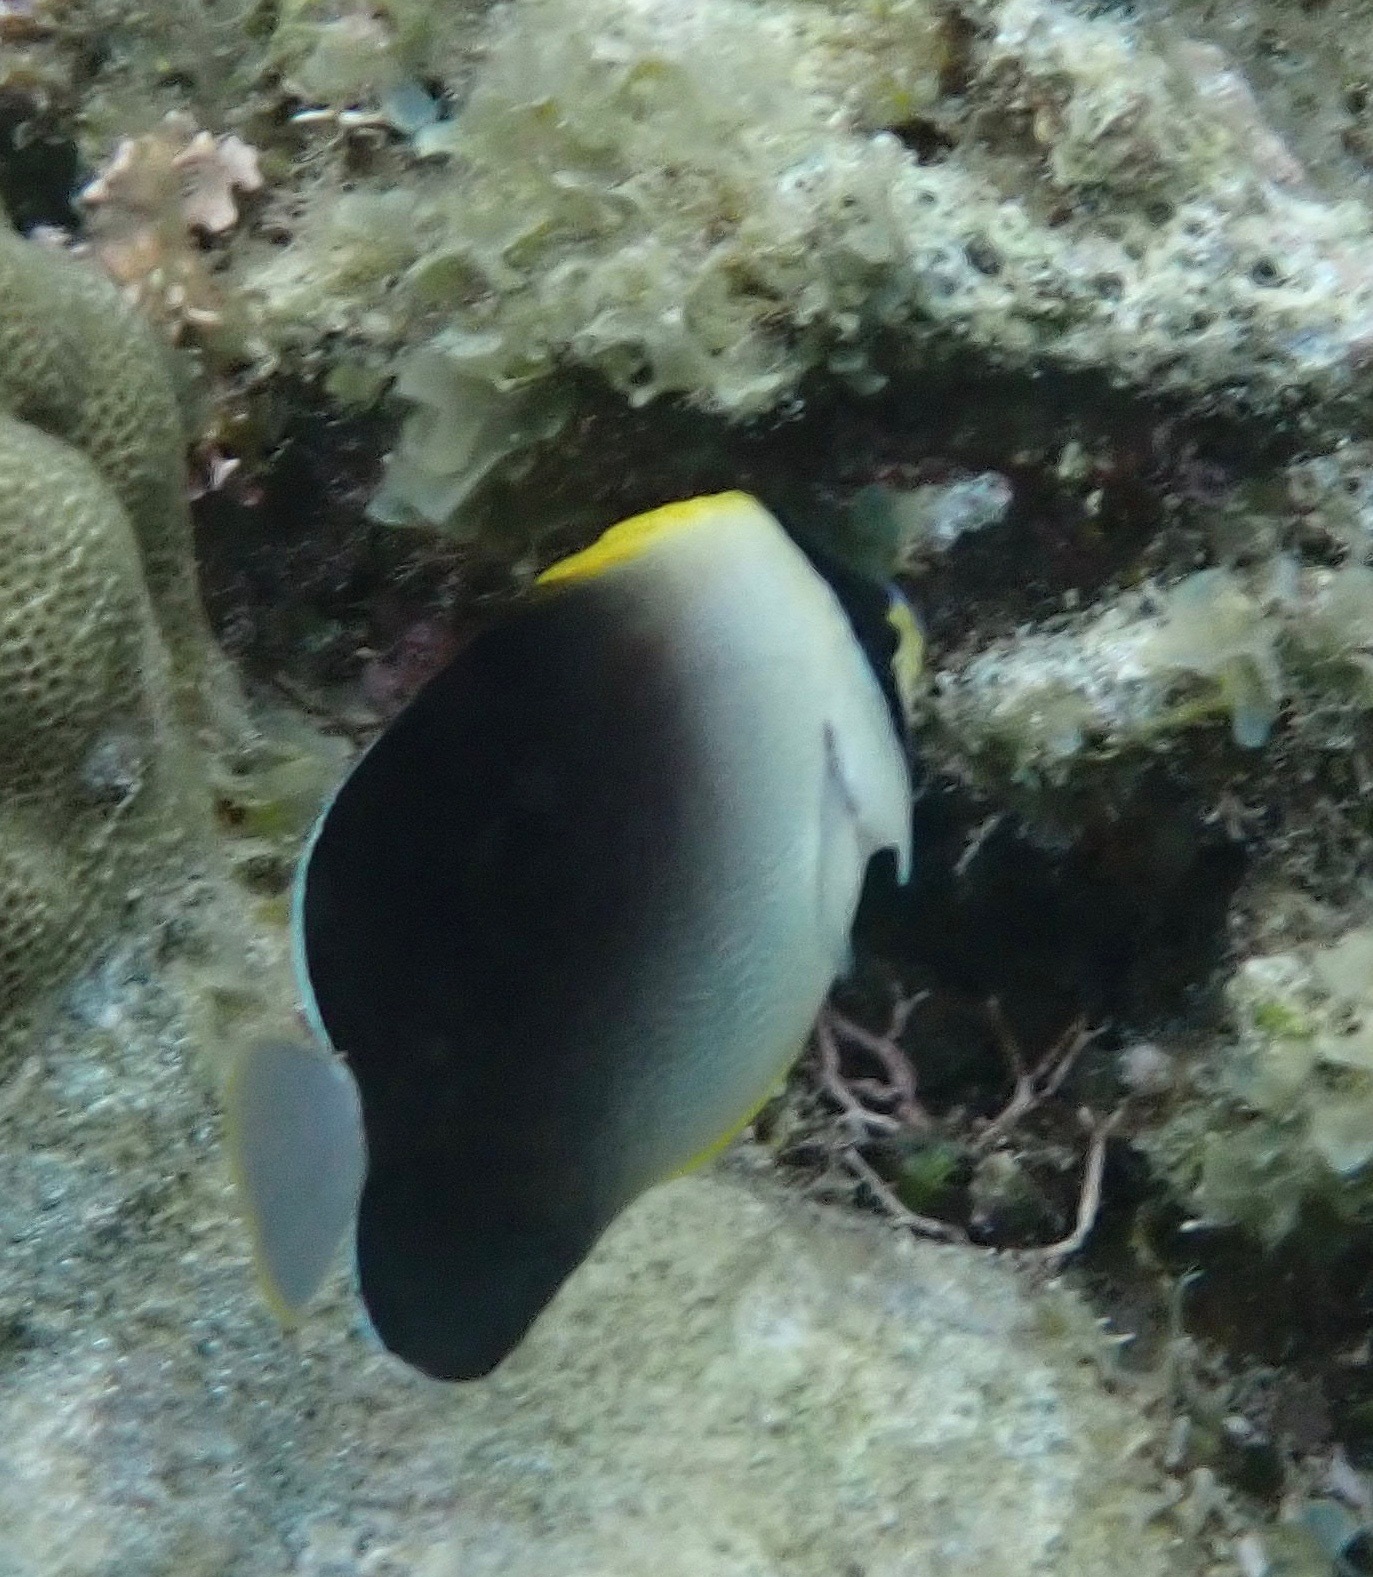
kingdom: Animalia
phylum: Chordata
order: Perciformes
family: Pomacanthidae
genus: Chaetodontoplus
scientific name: Chaetodontoplus poliourus
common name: Greytail angelfish
